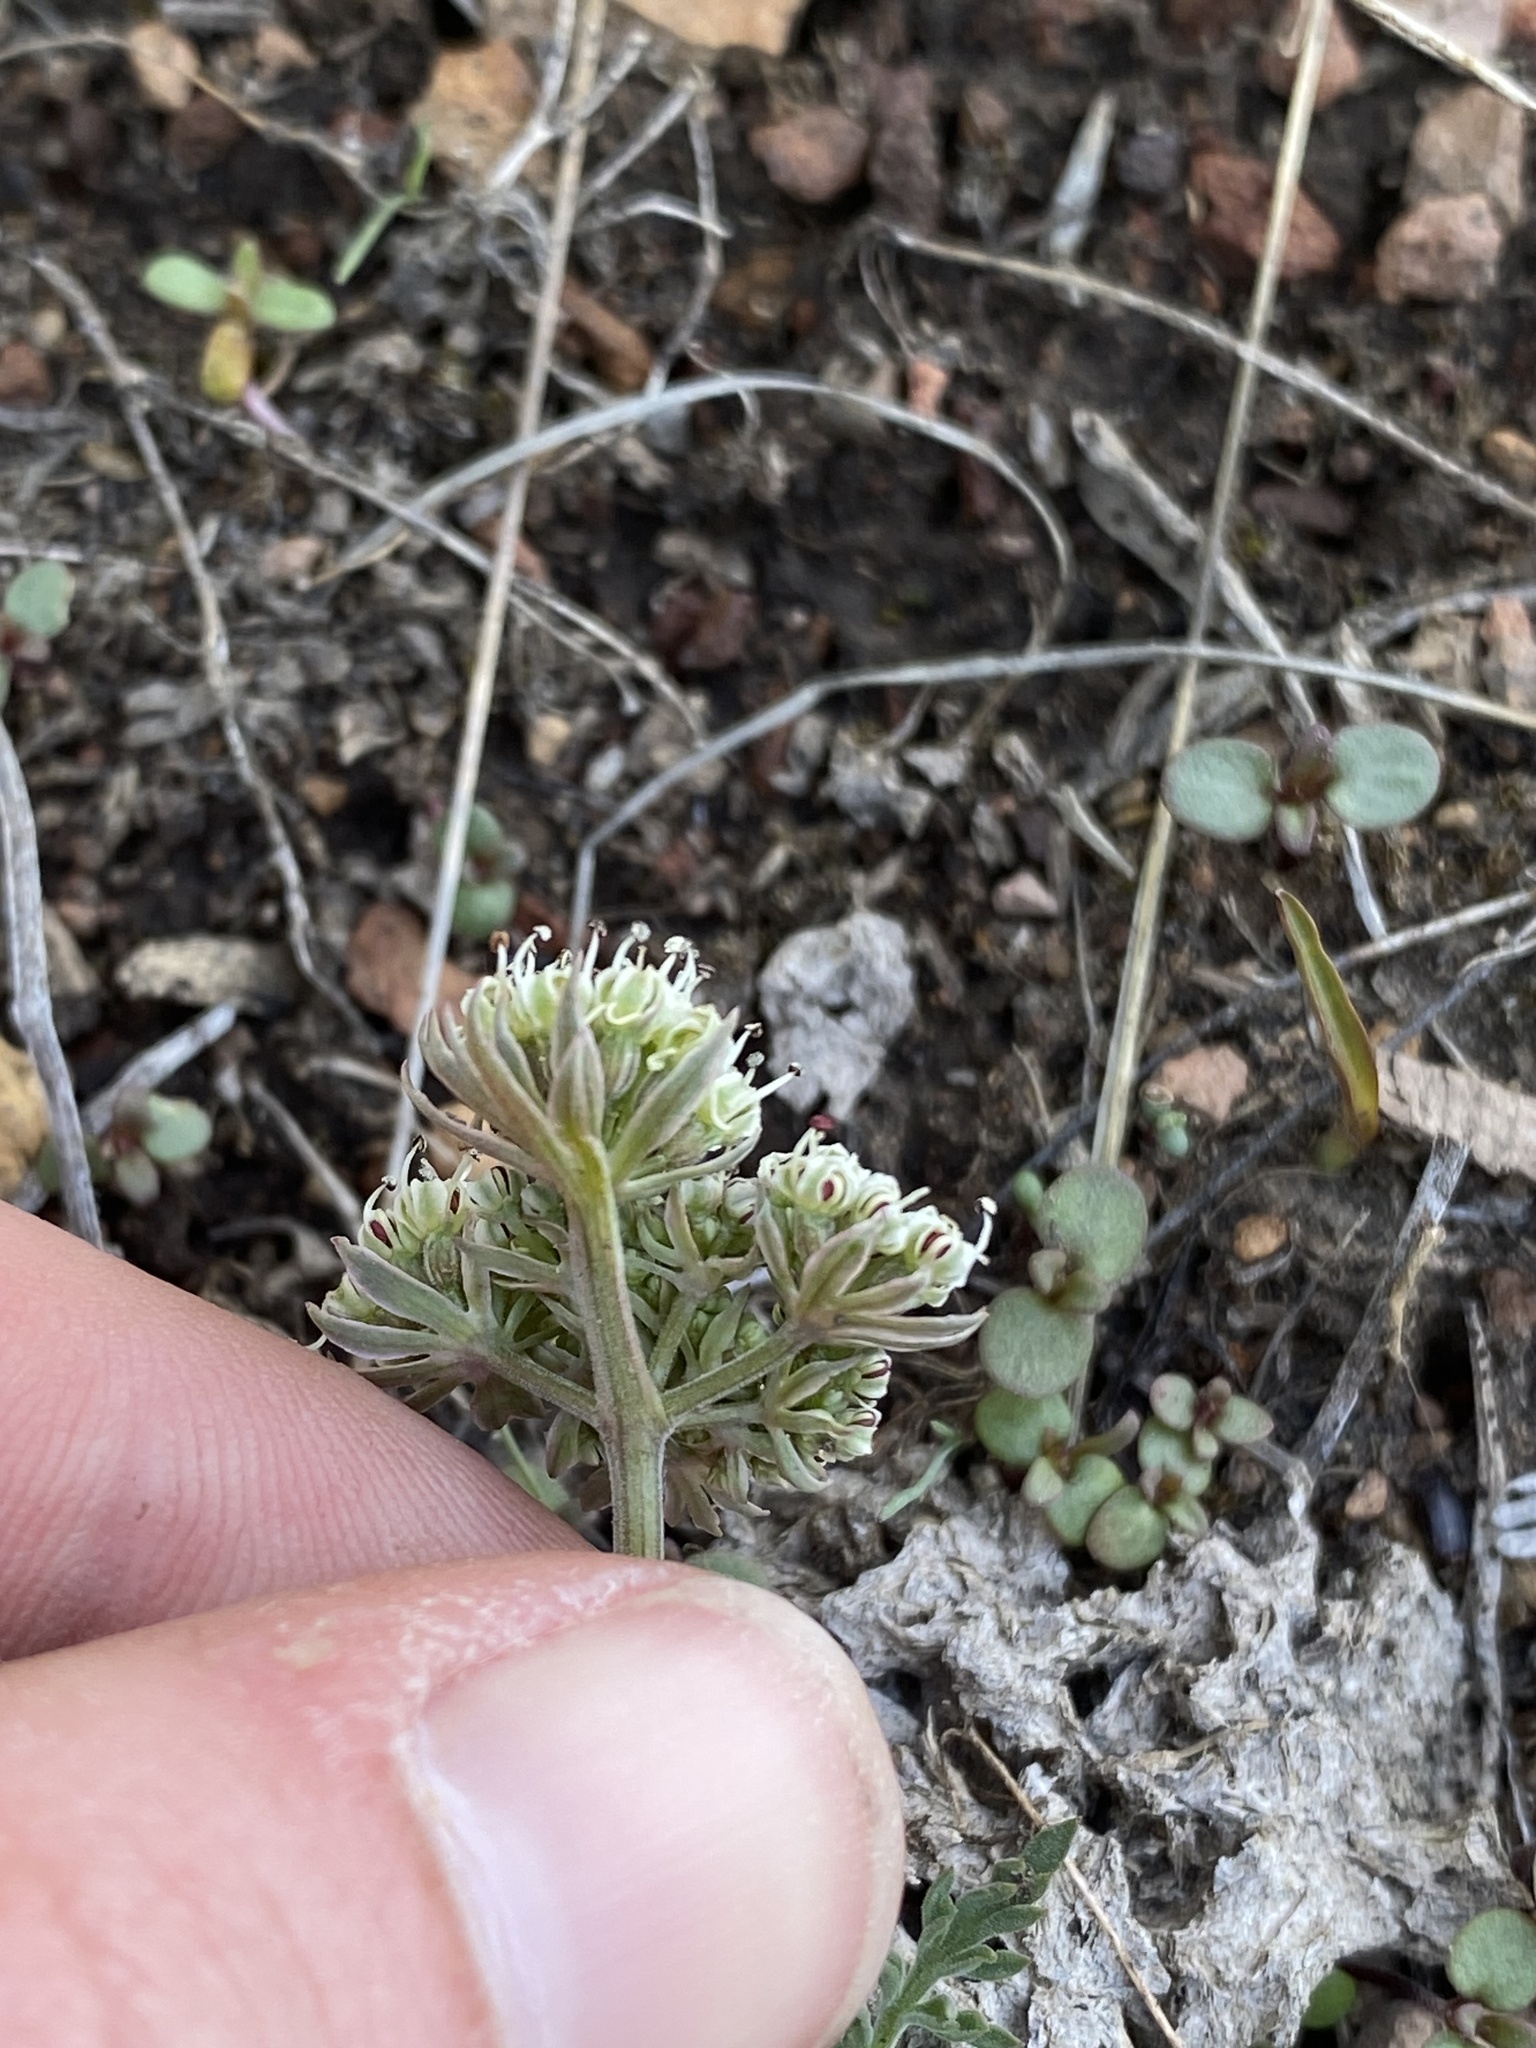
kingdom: Plantae
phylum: Tracheophyta
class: Magnoliopsida
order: Apiales
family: Apiaceae
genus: Lomatium
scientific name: Lomatium nevadense
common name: Nevada lomatium
